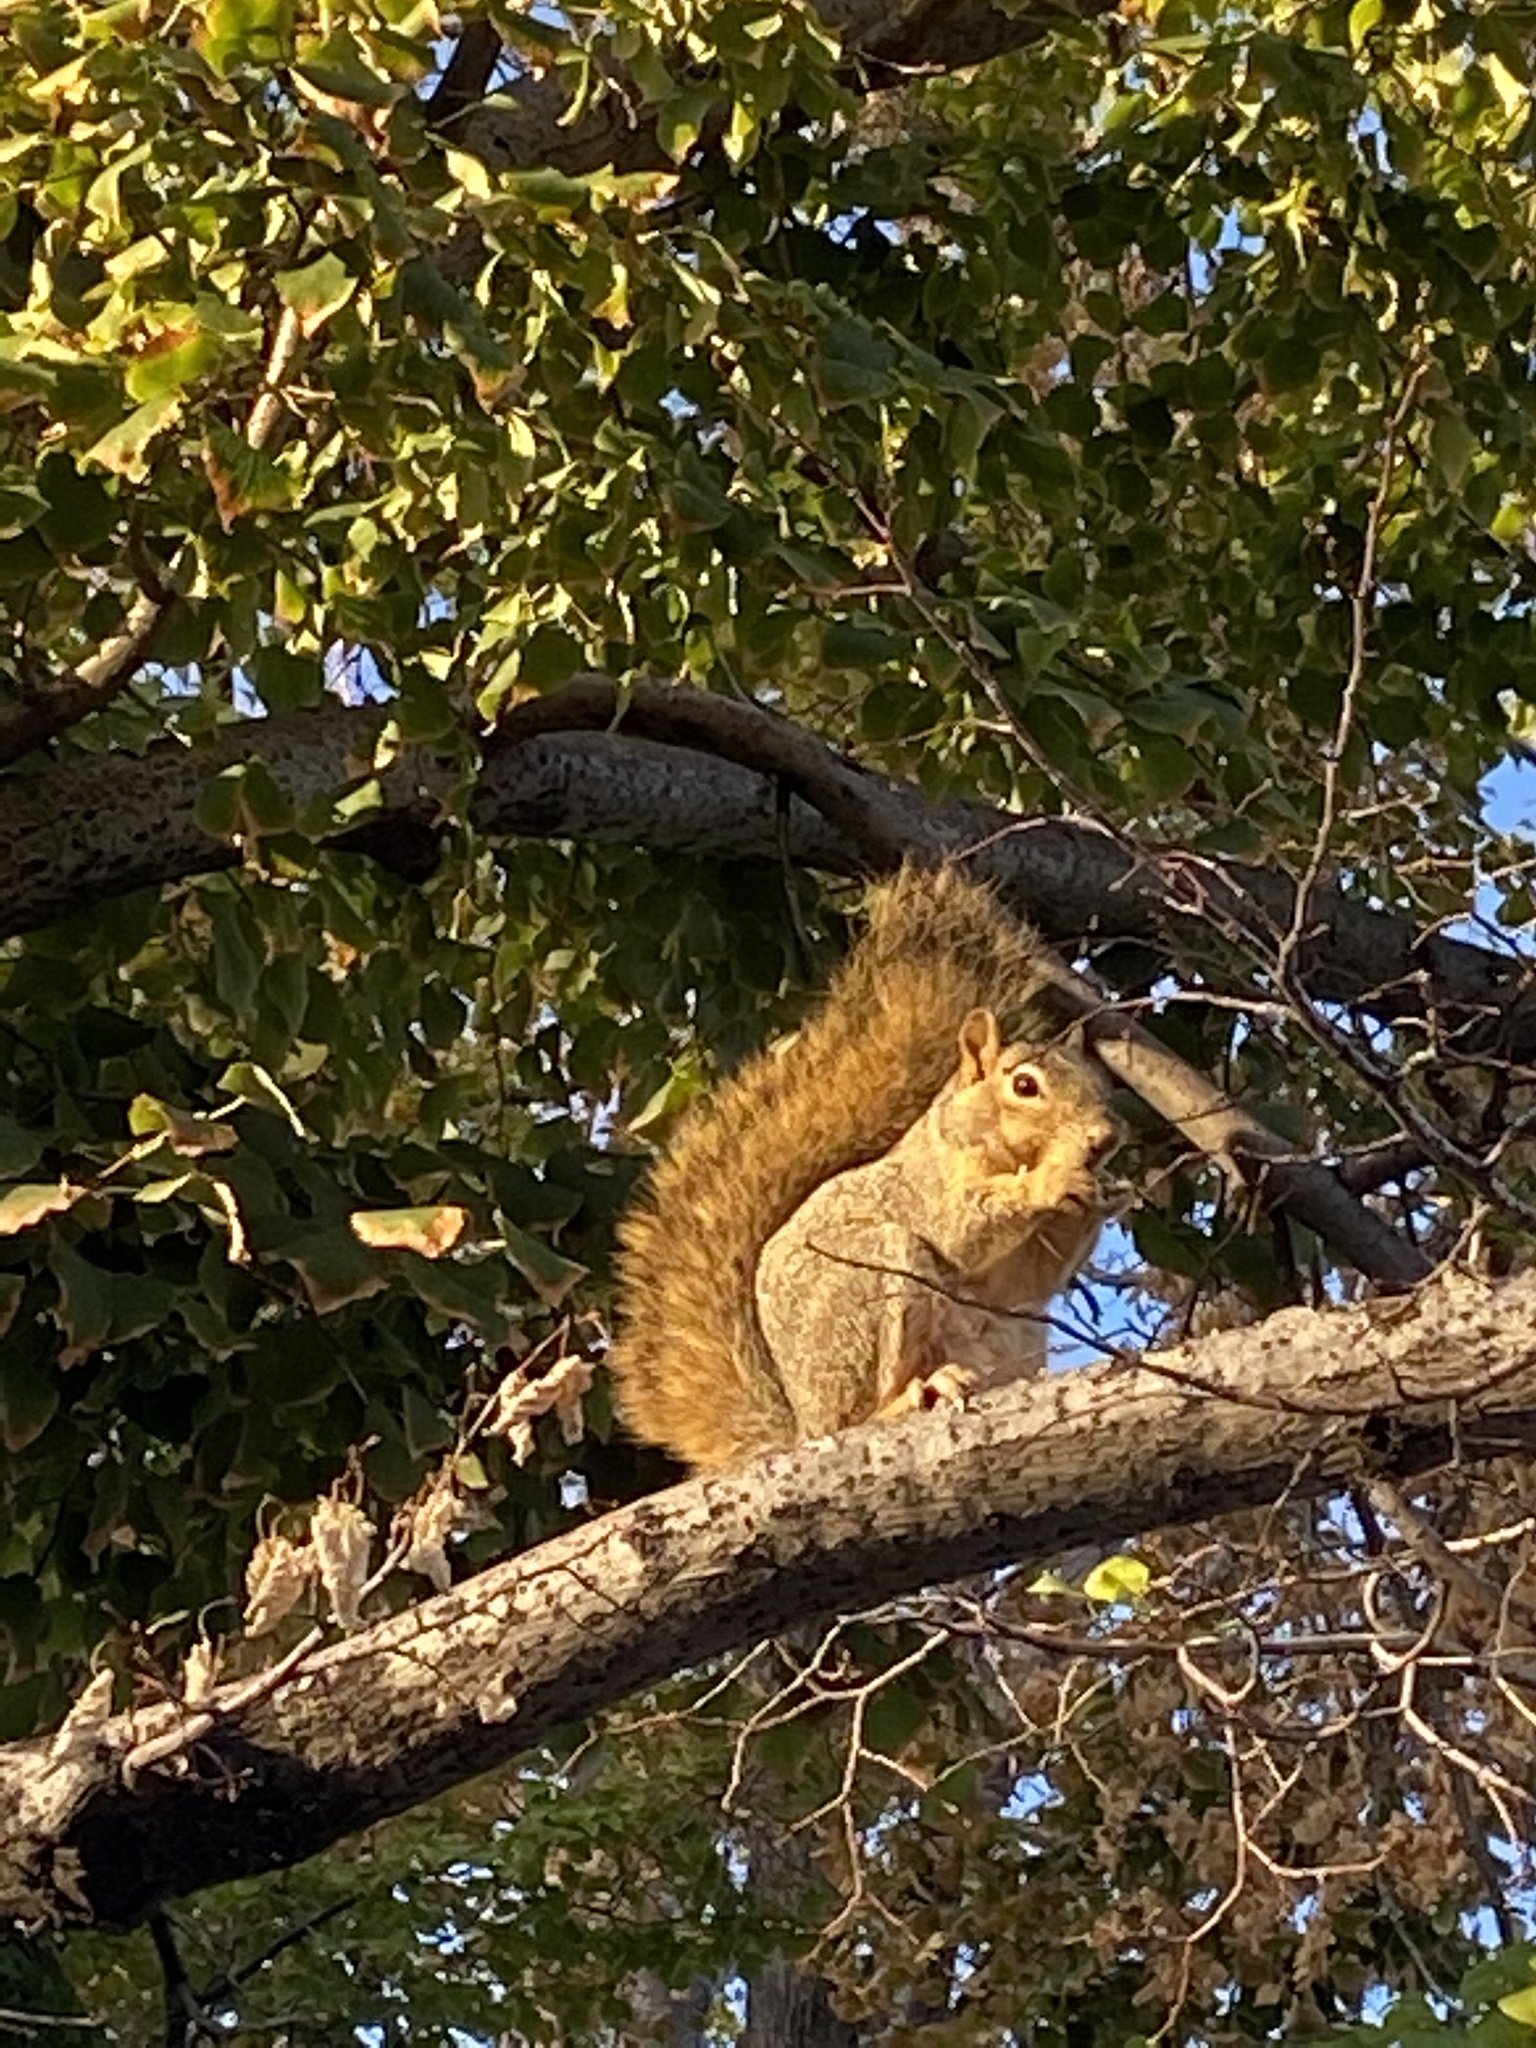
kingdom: Animalia
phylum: Chordata
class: Mammalia
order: Rodentia
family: Sciuridae
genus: Sciurus
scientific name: Sciurus niger
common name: Fox squirrel
